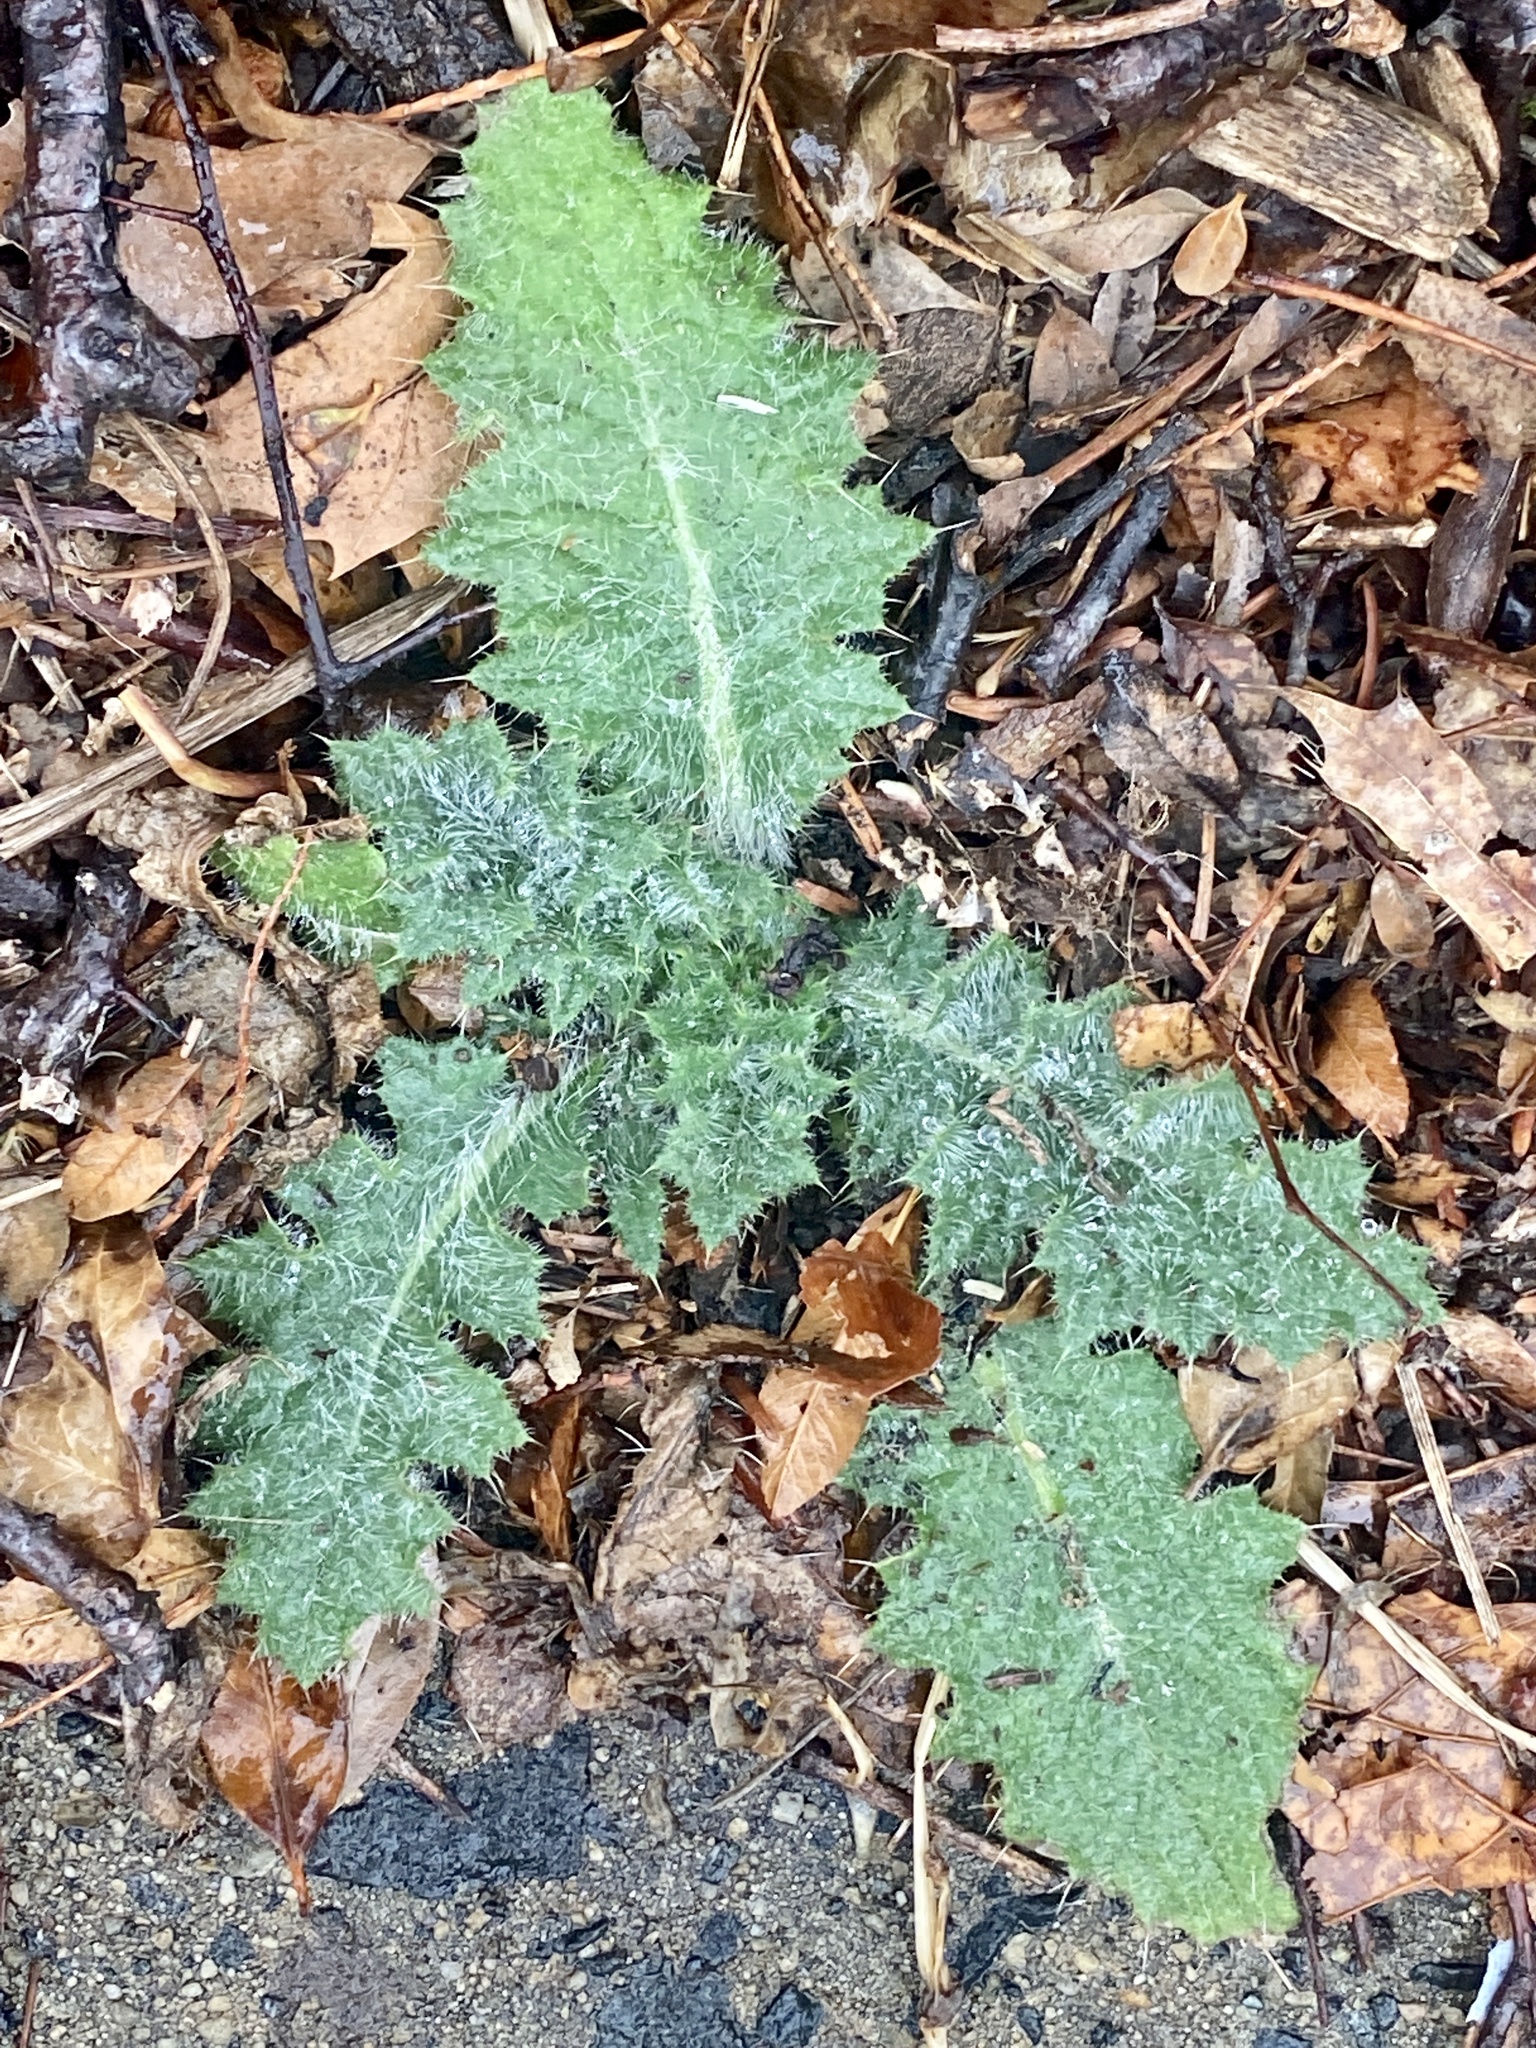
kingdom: Plantae
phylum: Tracheophyta
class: Magnoliopsida
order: Asterales
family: Asteraceae
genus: Cirsium
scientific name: Cirsium vulgare
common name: Bull thistle
